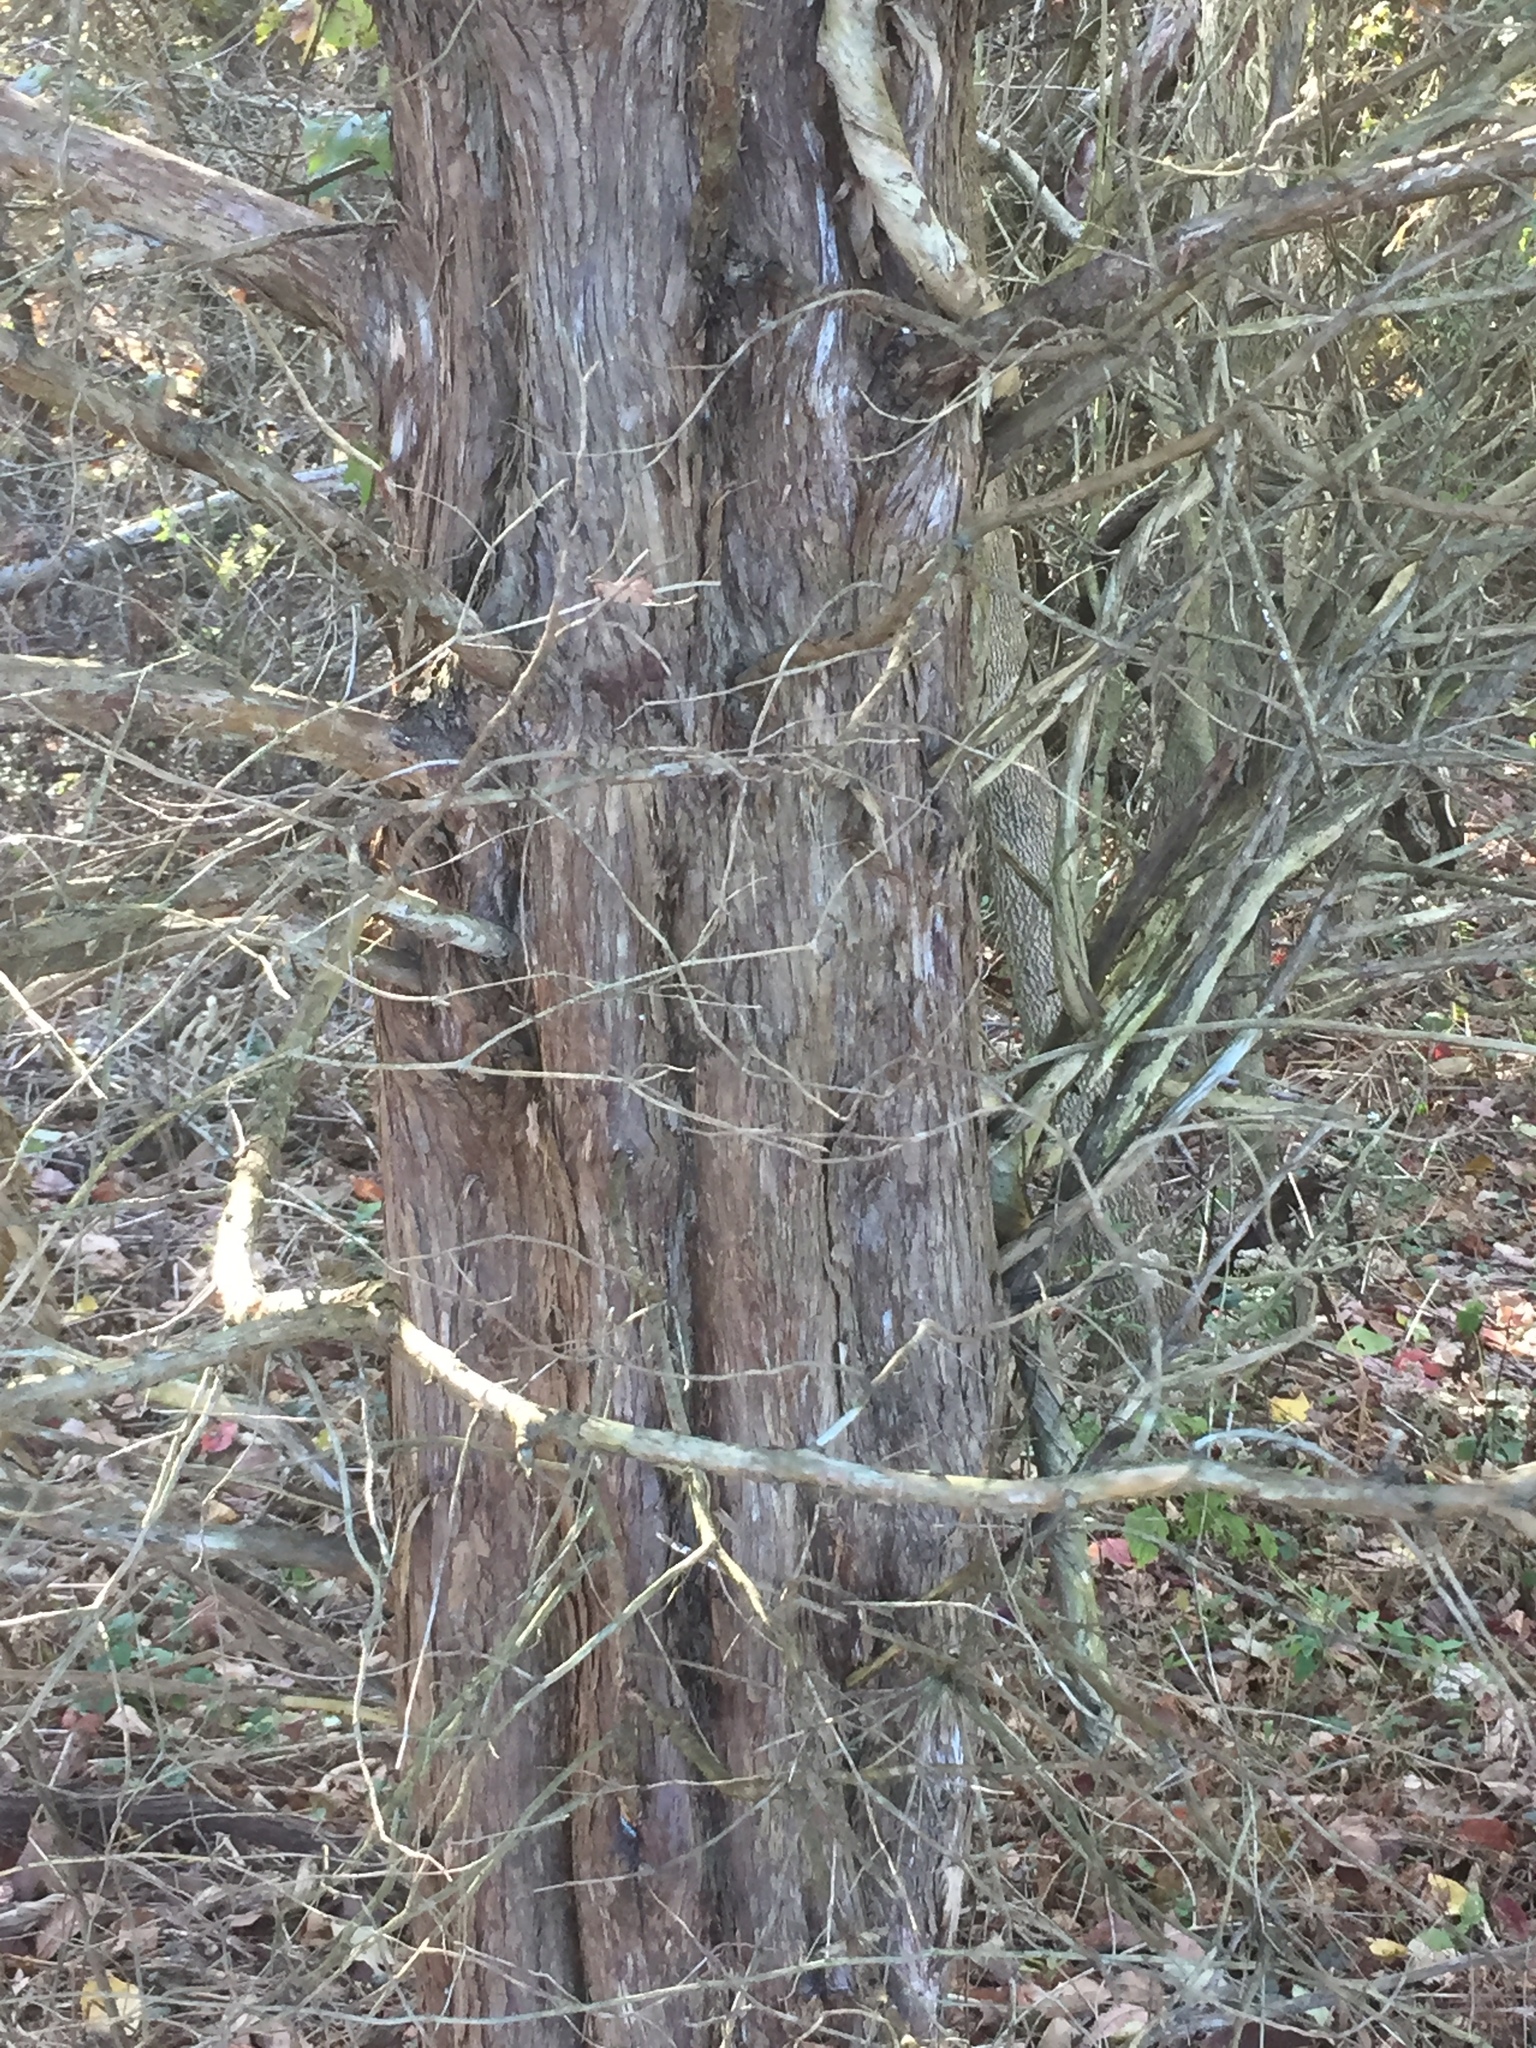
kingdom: Plantae
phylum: Tracheophyta
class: Pinopsida
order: Pinales
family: Cupressaceae
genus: Juniperus
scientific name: Juniperus virginiana
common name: Red juniper
